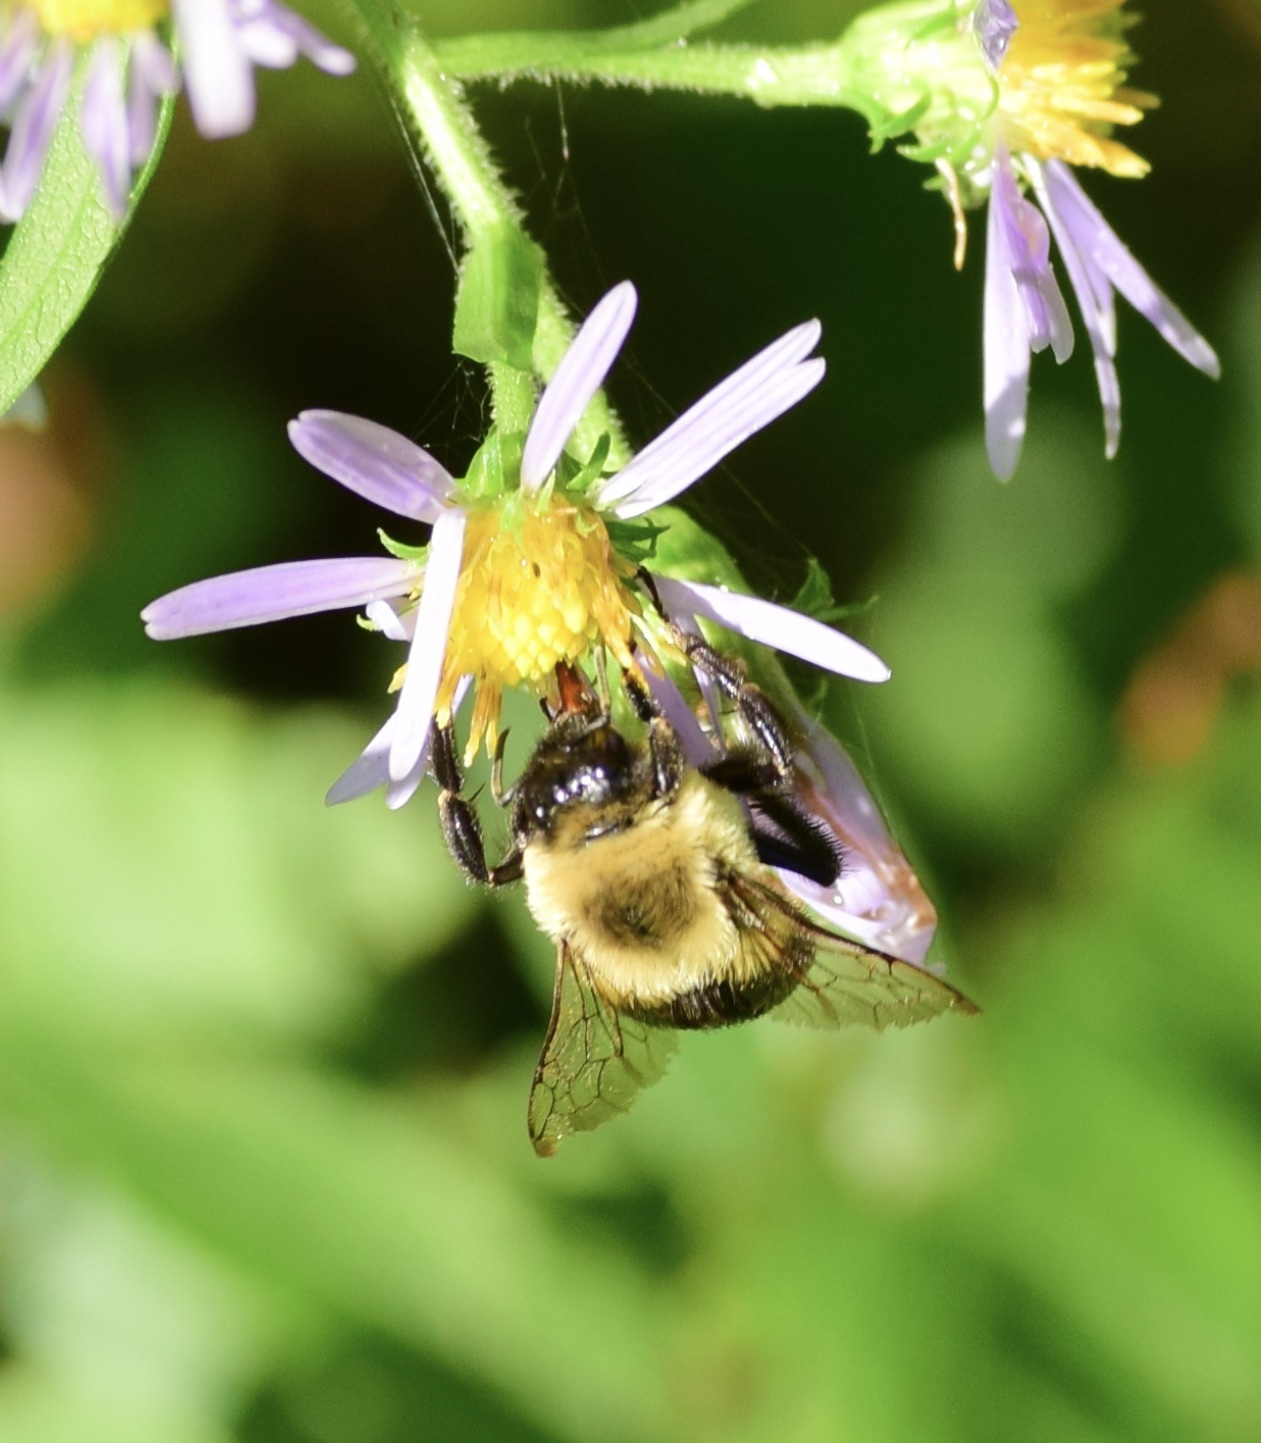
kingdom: Animalia
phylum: Arthropoda
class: Insecta
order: Hymenoptera
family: Apidae
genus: Bombus
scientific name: Bombus impatiens
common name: Common eastern bumble bee
